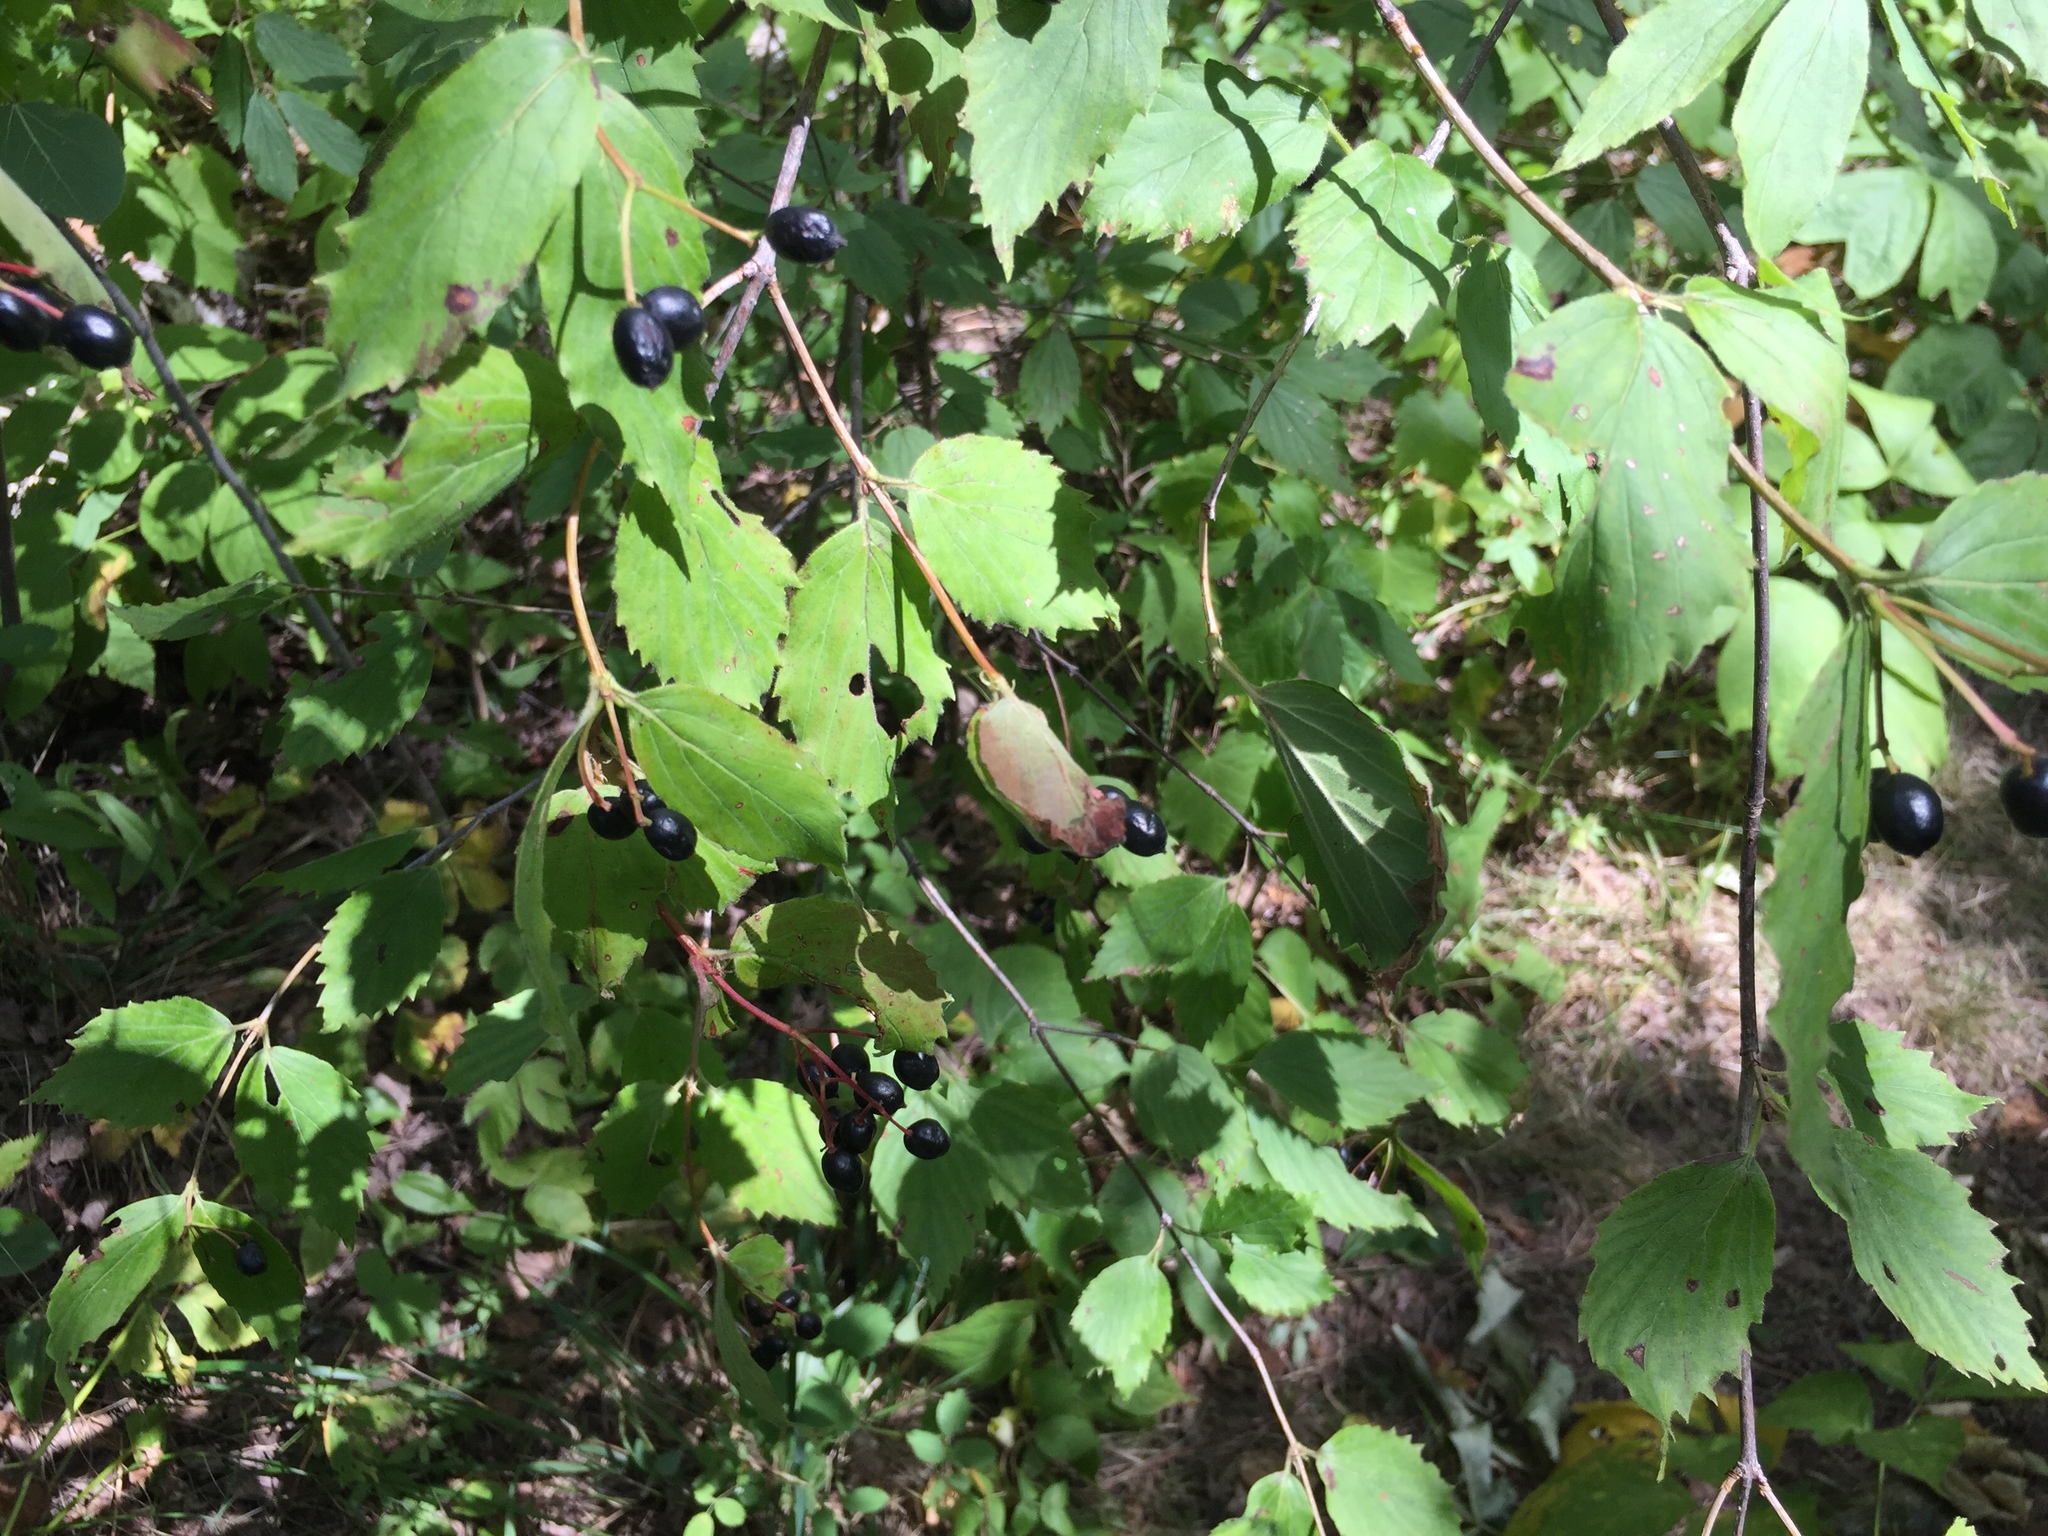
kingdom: Plantae
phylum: Tracheophyta
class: Magnoliopsida
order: Dipsacales
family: Viburnaceae
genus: Viburnum
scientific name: Viburnum rafinesqueanum
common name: Downy arrow-wood
